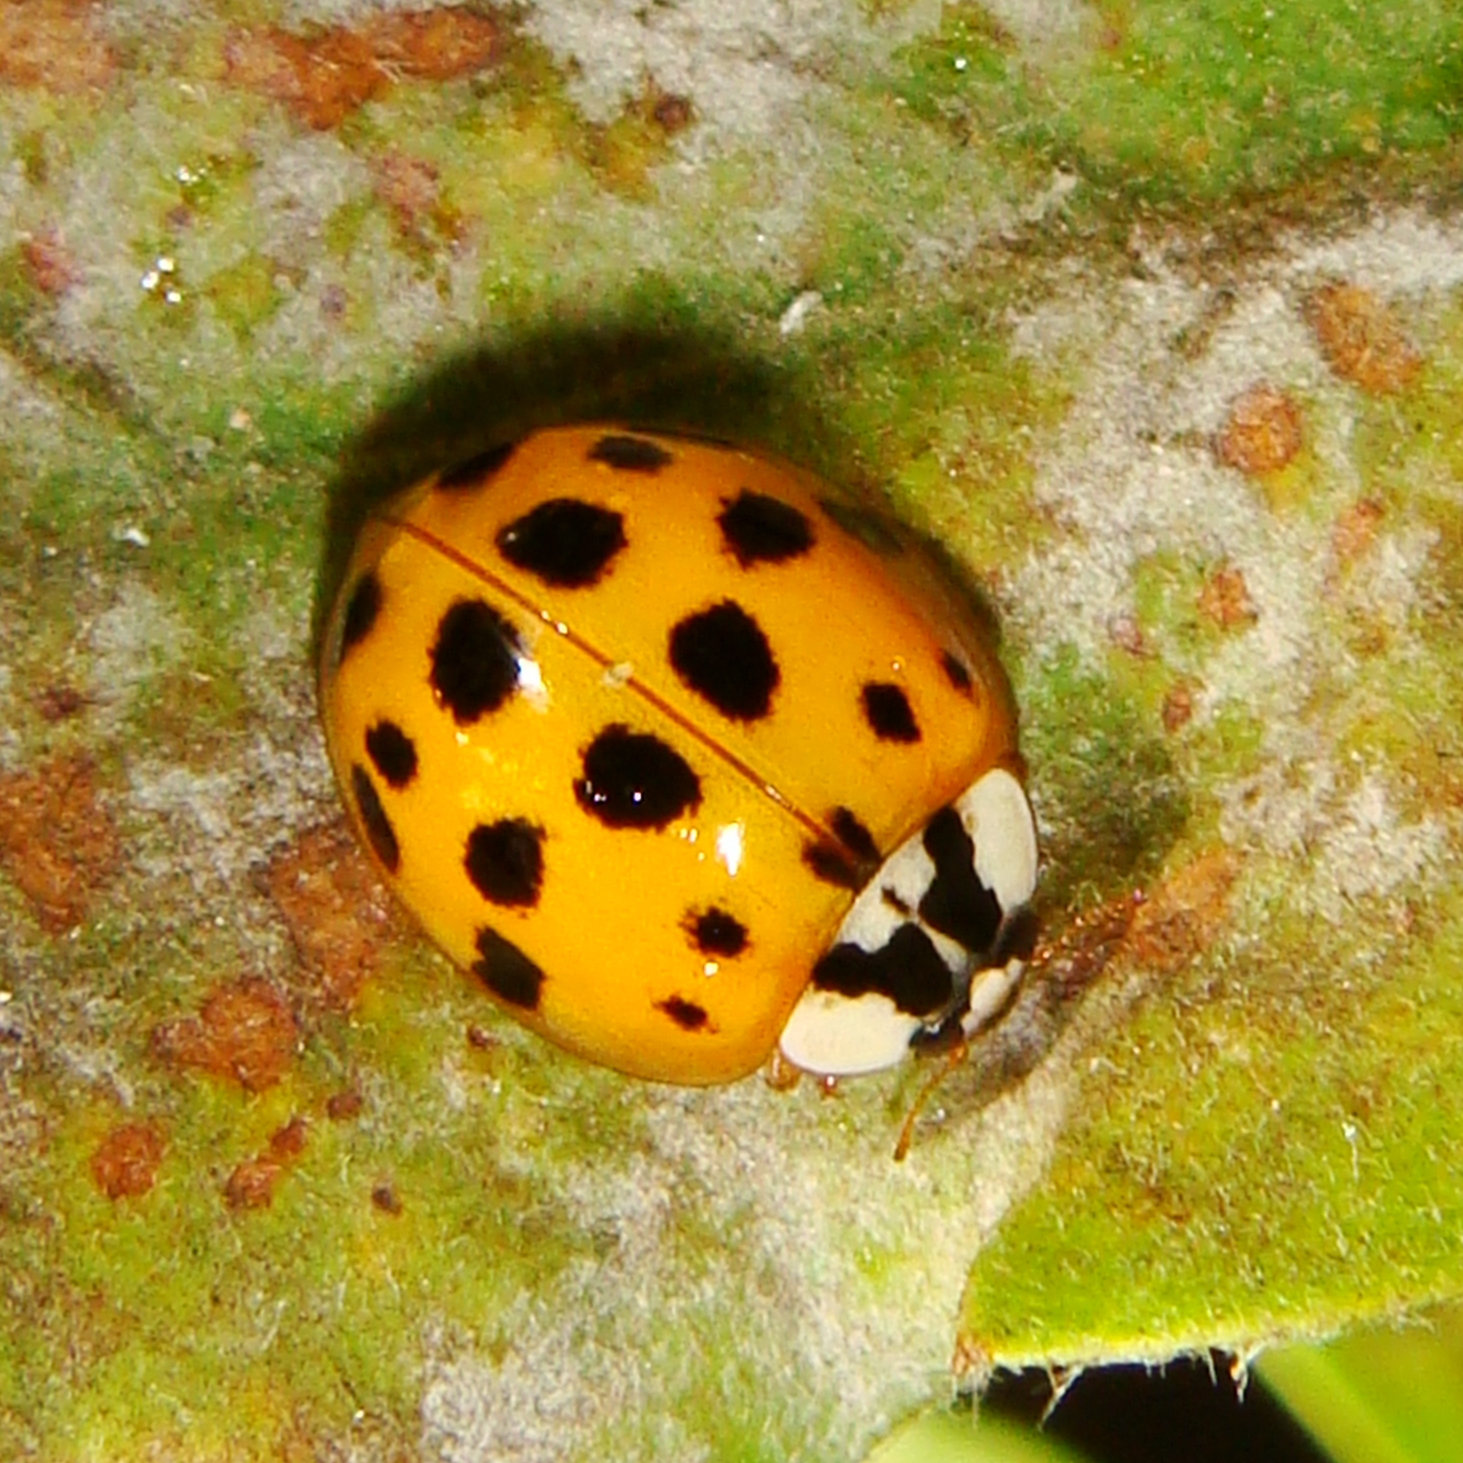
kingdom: Animalia
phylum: Arthropoda
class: Insecta
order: Coleoptera
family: Coccinellidae
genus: Harmonia
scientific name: Harmonia axyridis
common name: Harlequin ladybird
